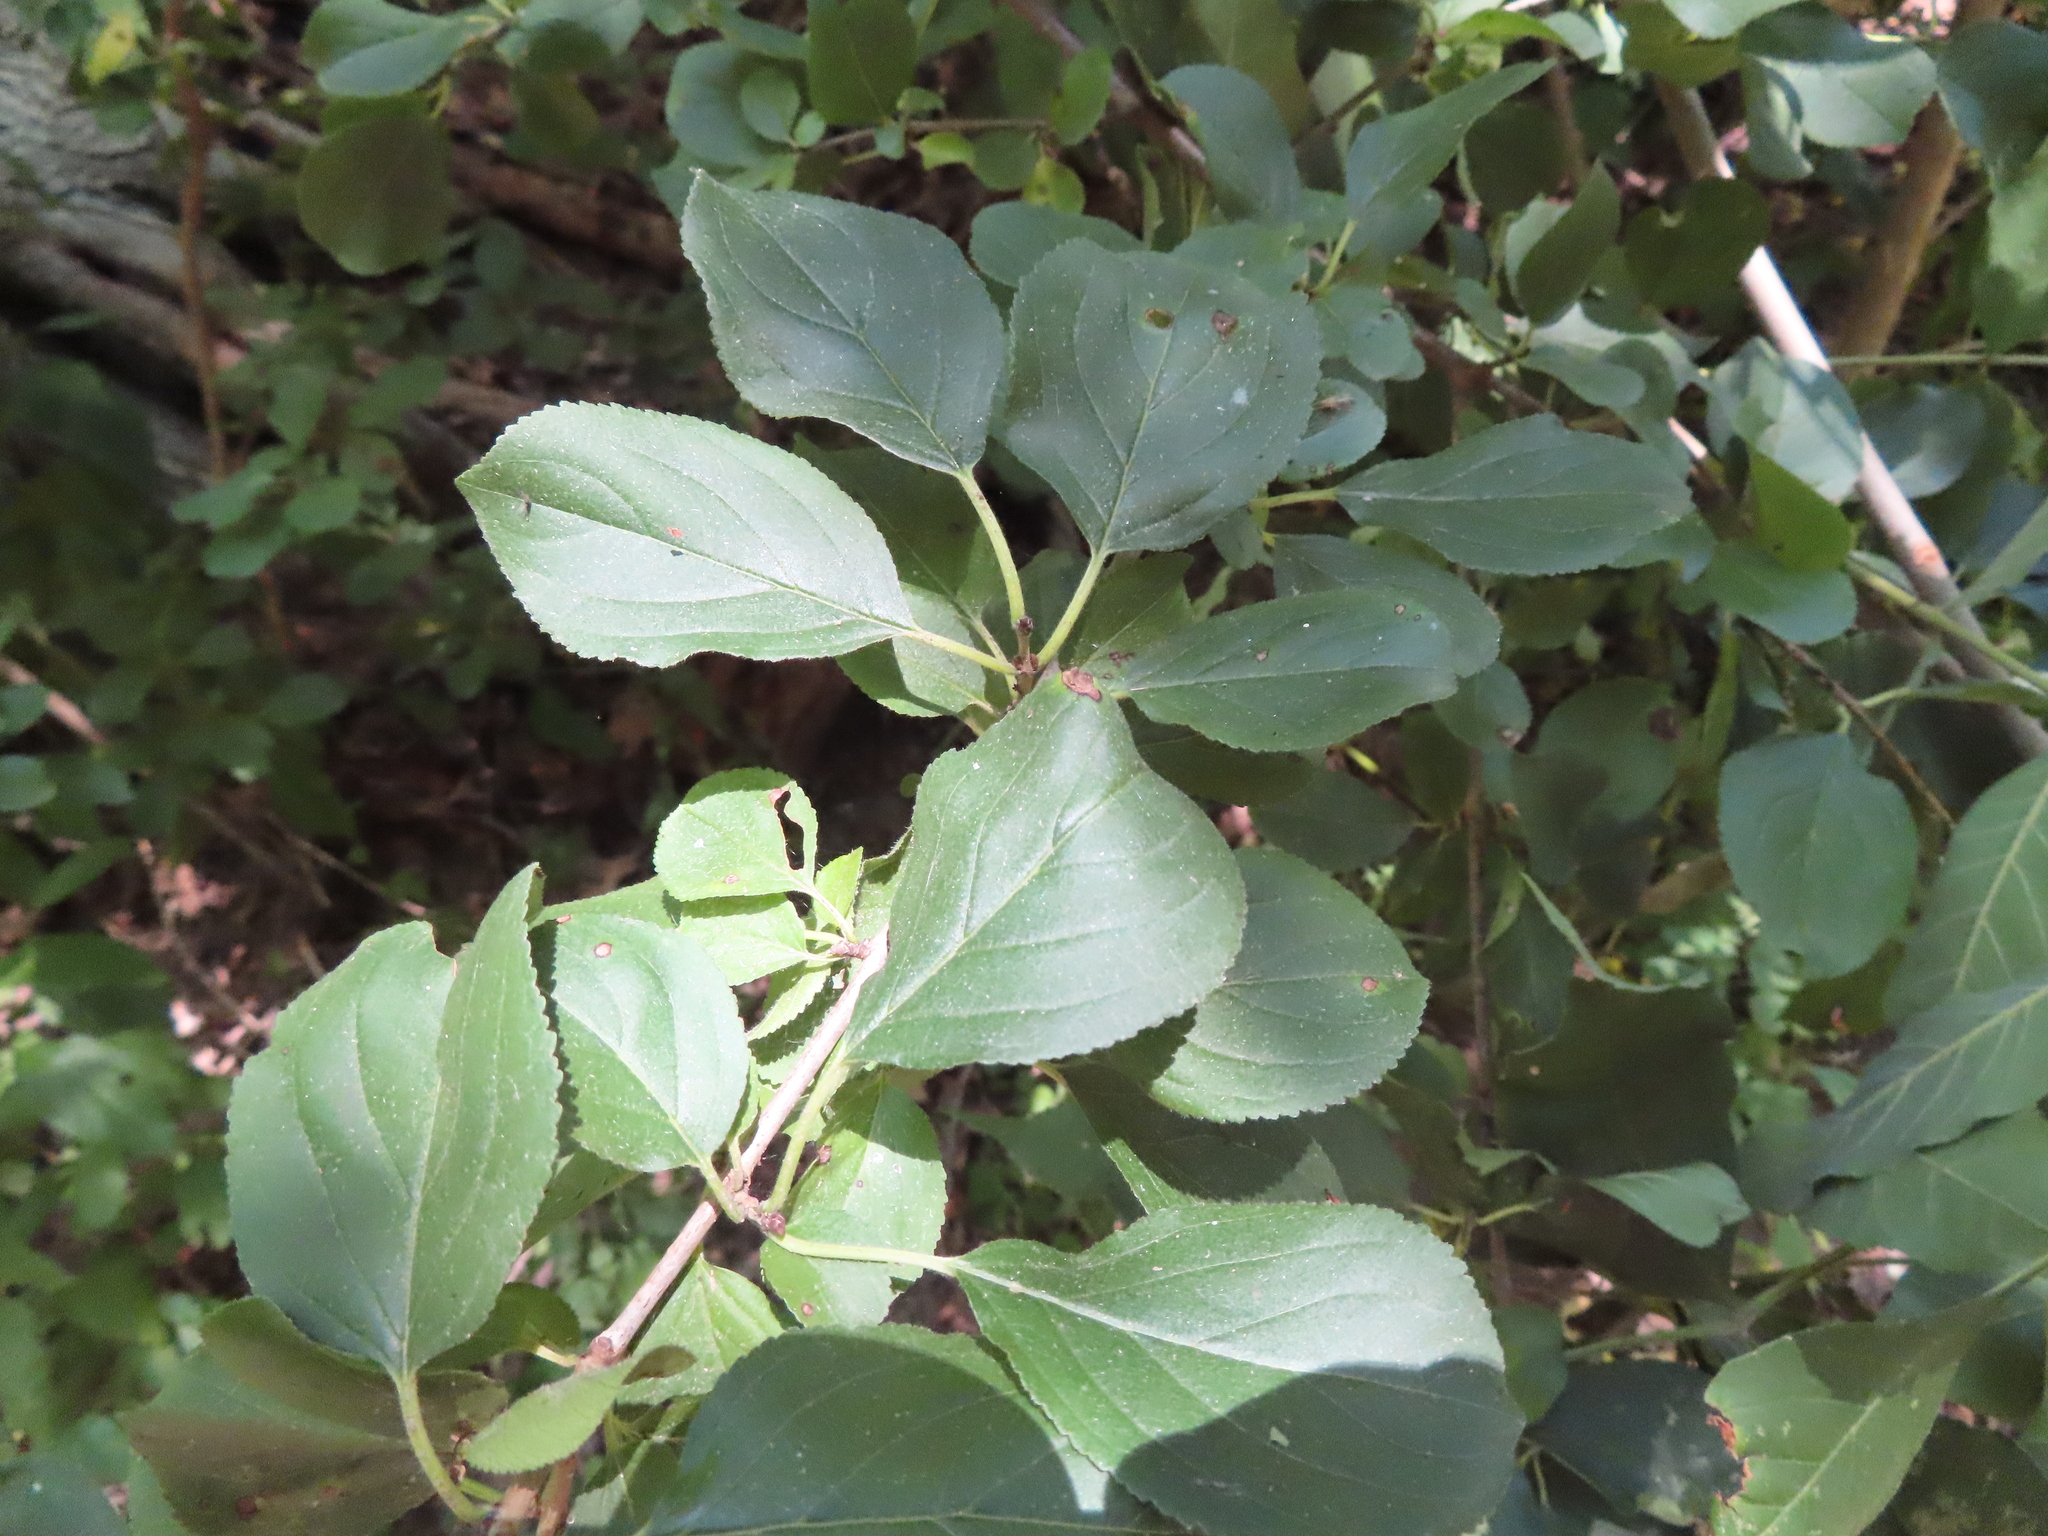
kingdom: Plantae
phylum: Tracheophyta
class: Magnoliopsida
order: Rosales
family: Rhamnaceae
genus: Rhamnus
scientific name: Rhamnus cathartica
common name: Common buckthorn
